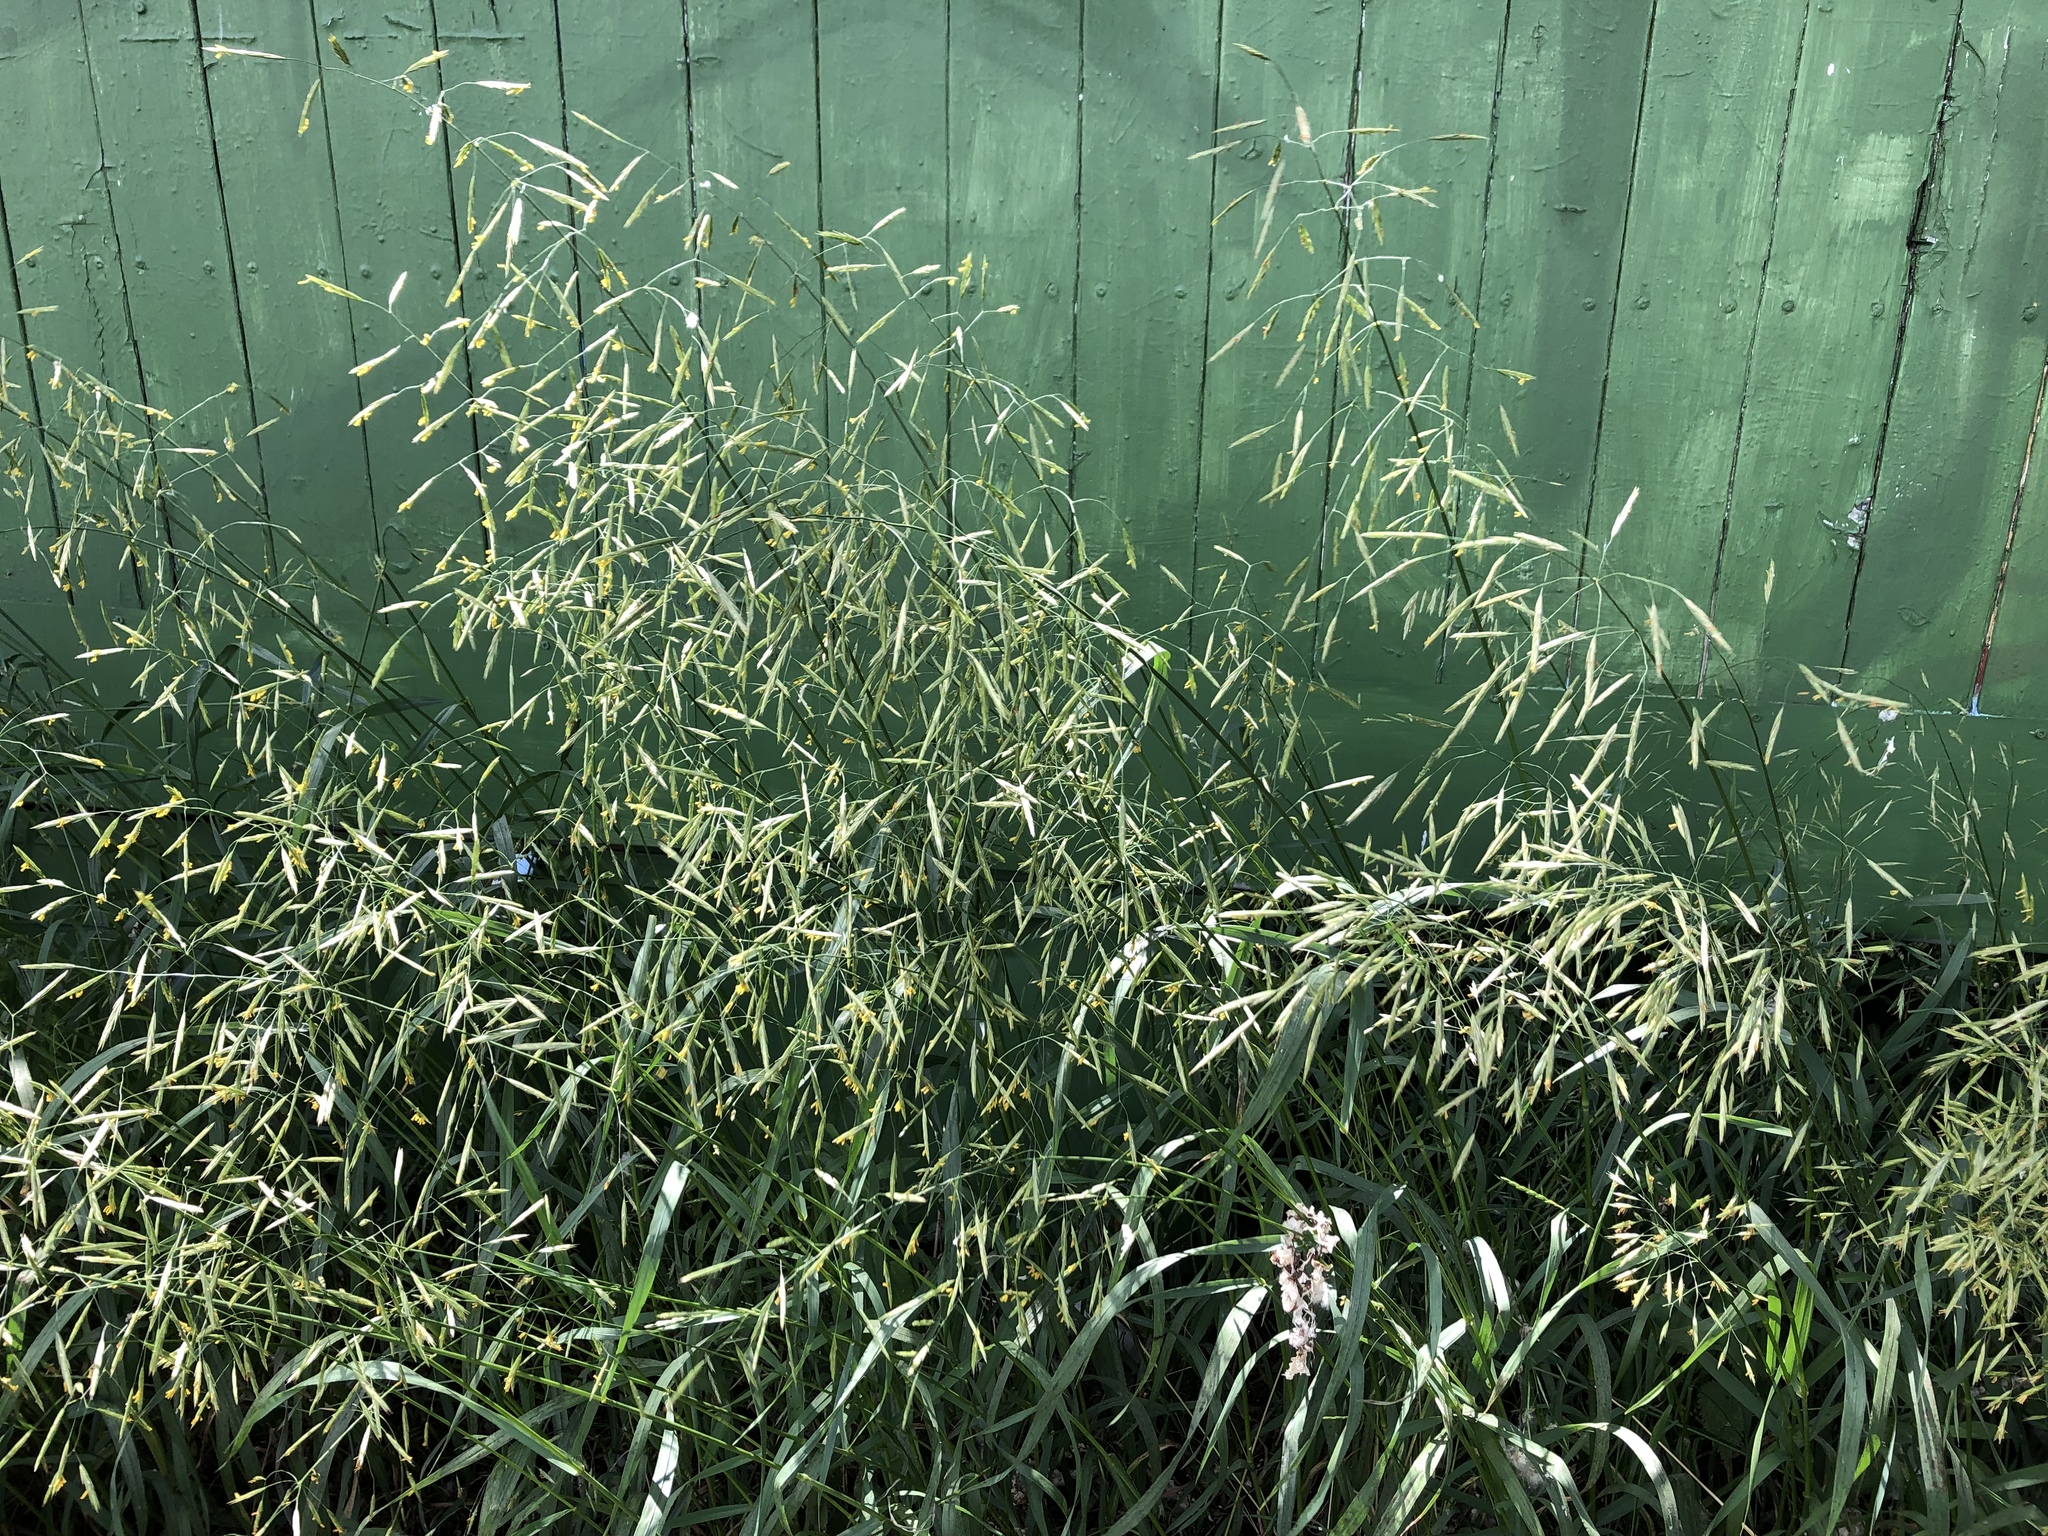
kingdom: Plantae
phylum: Tracheophyta
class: Liliopsida
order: Poales
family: Poaceae
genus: Bromus
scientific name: Bromus inermis
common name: Smooth brome
